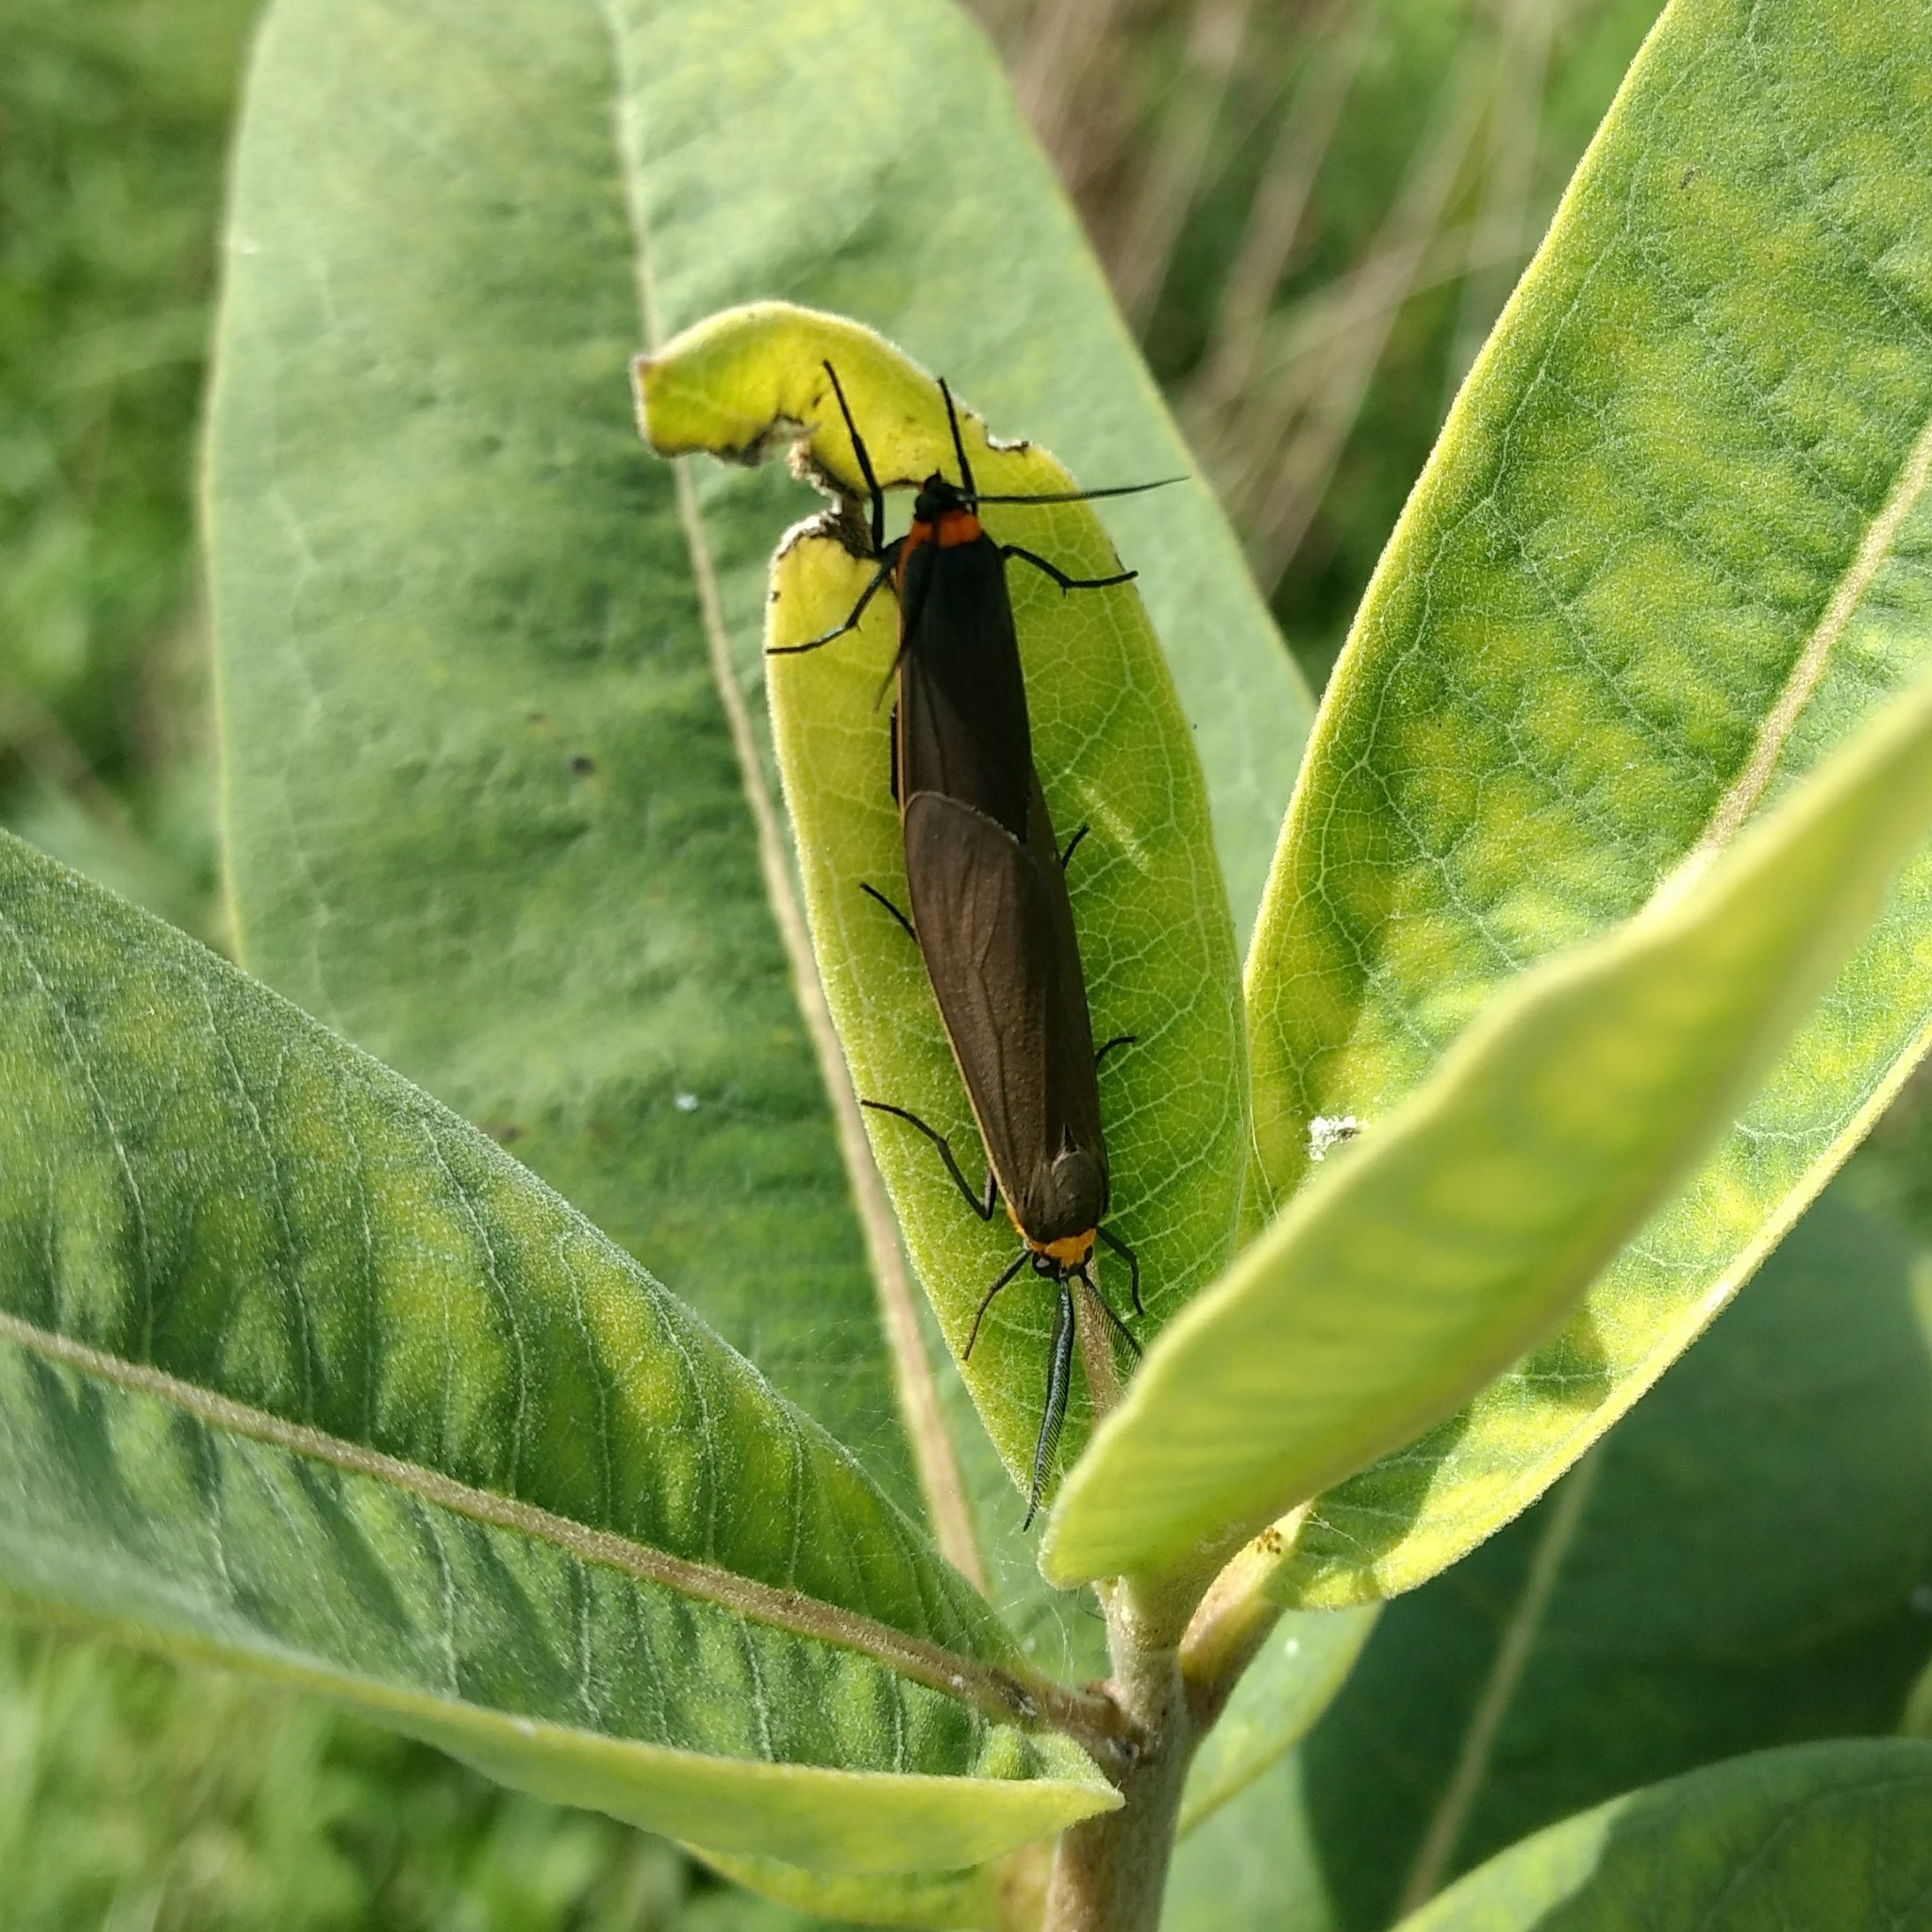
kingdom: Animalia
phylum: Arthropoda
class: Insecta
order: Lepidoptera
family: Erebidae
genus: Cisseps
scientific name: Cisseps fulvicollis
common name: Yellow-collared scape moth
